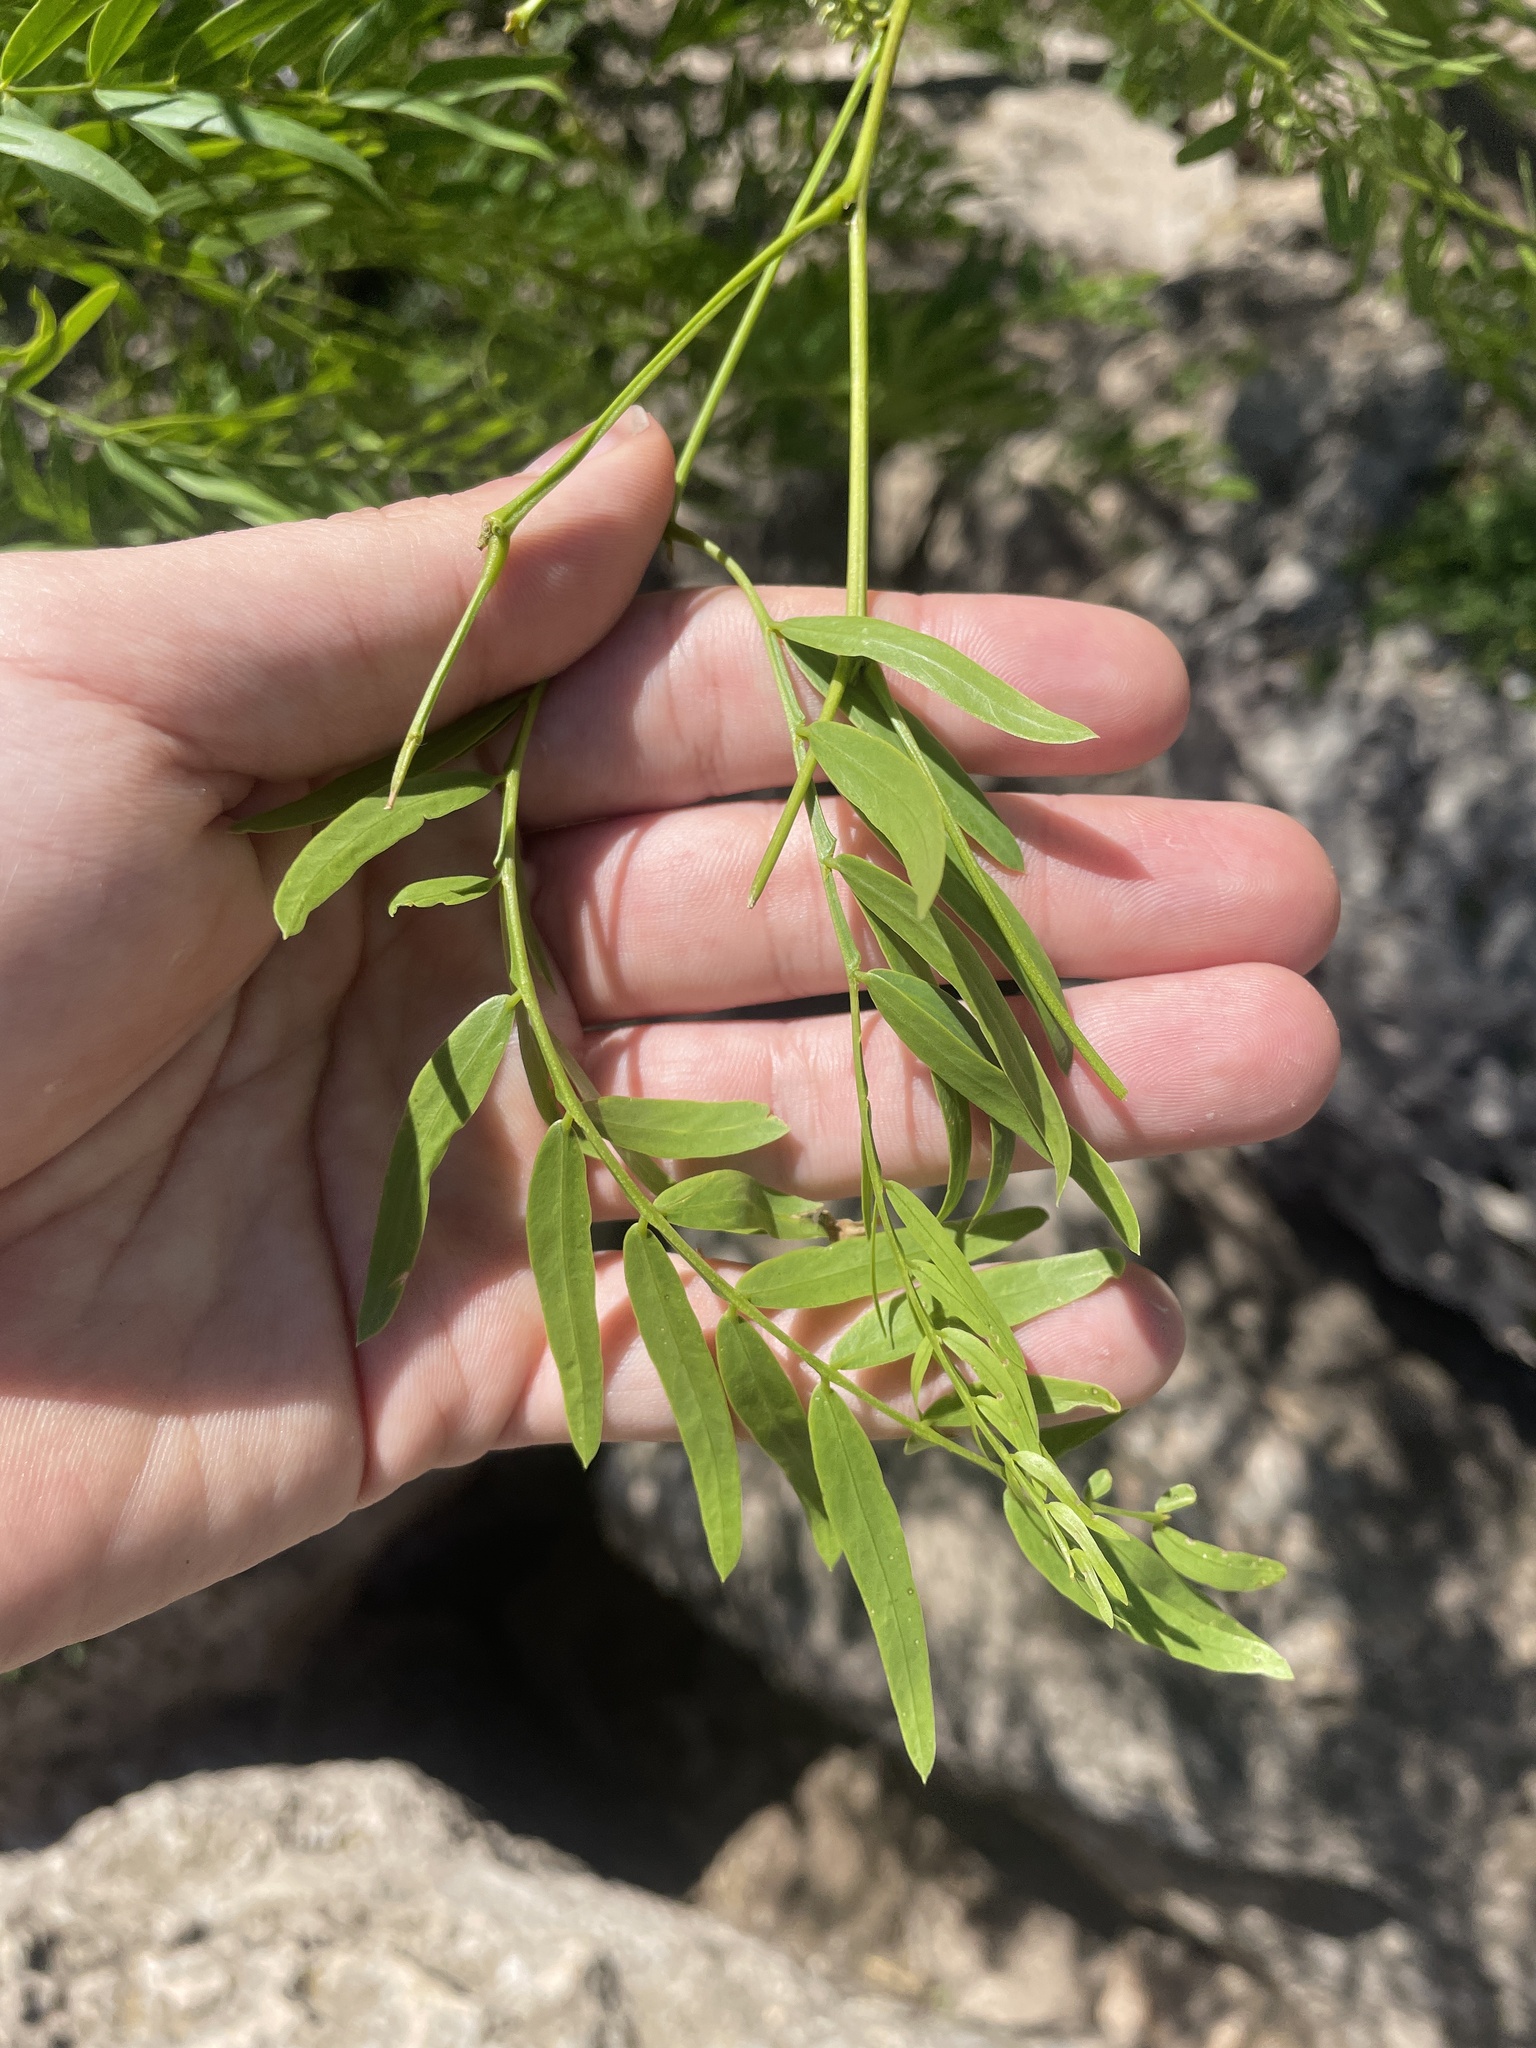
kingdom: Plantae
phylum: Tracheophyta
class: Magnoliopsida
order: Fabales
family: Fabaceae
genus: Prosopis
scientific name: Prosopis glandulosa
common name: Honey mesquite
